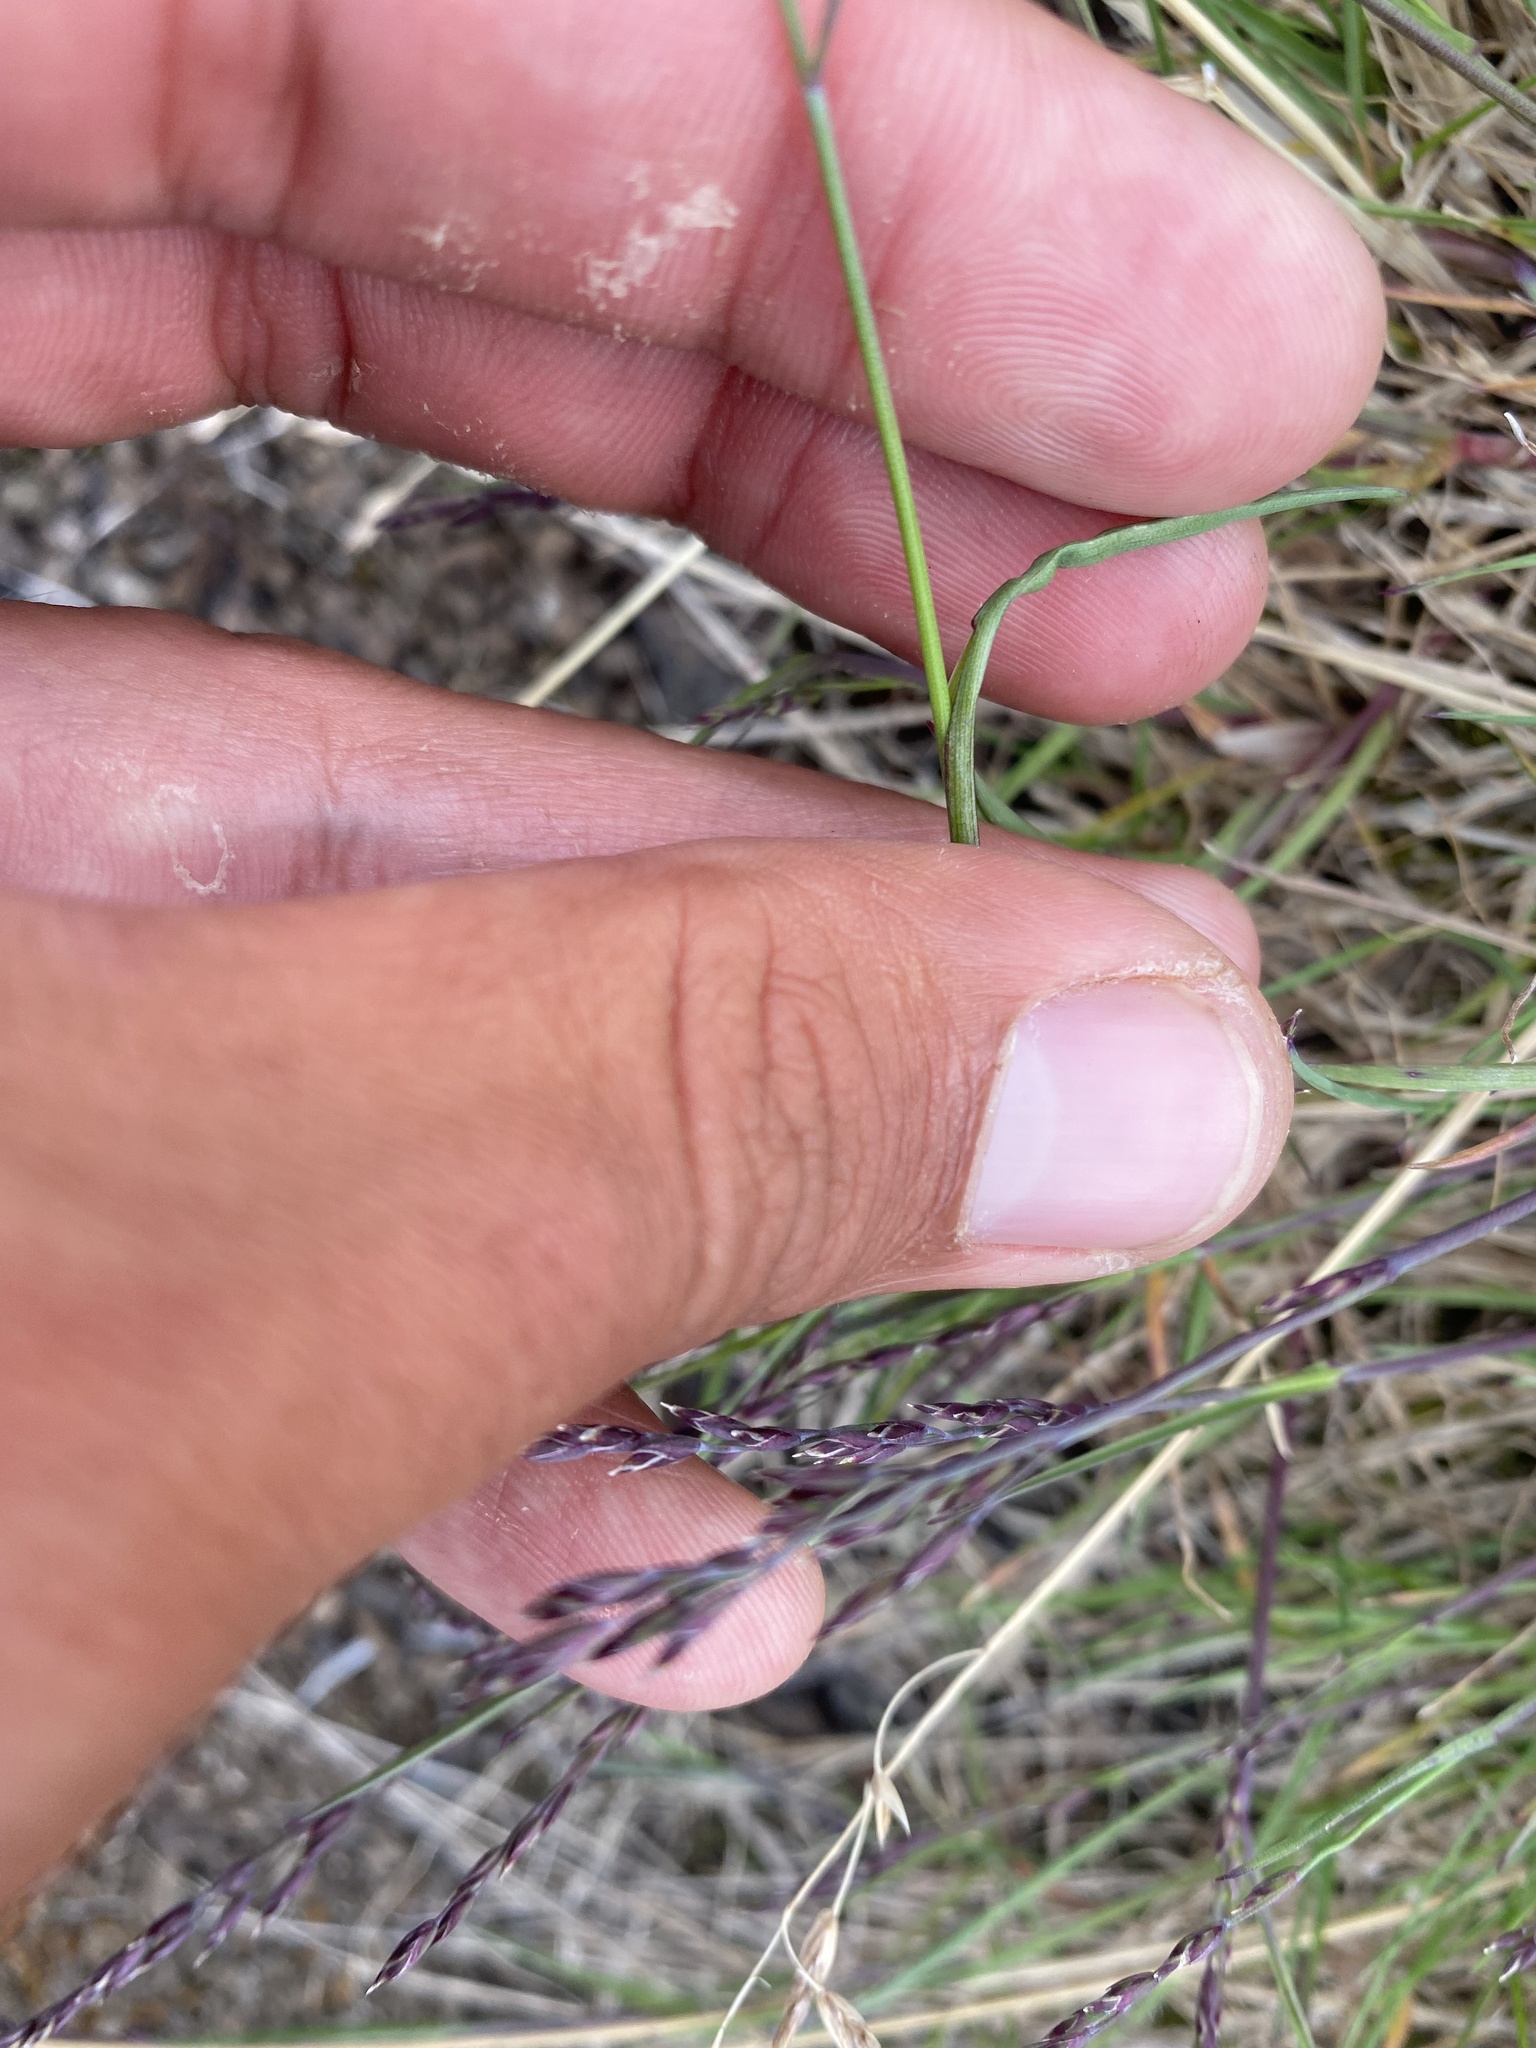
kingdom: Plantae
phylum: Tracheophyta
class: Liliopsida
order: Poales
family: Poaceae
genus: Poa
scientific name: Poa glauca
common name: Glaucous bluegrass
